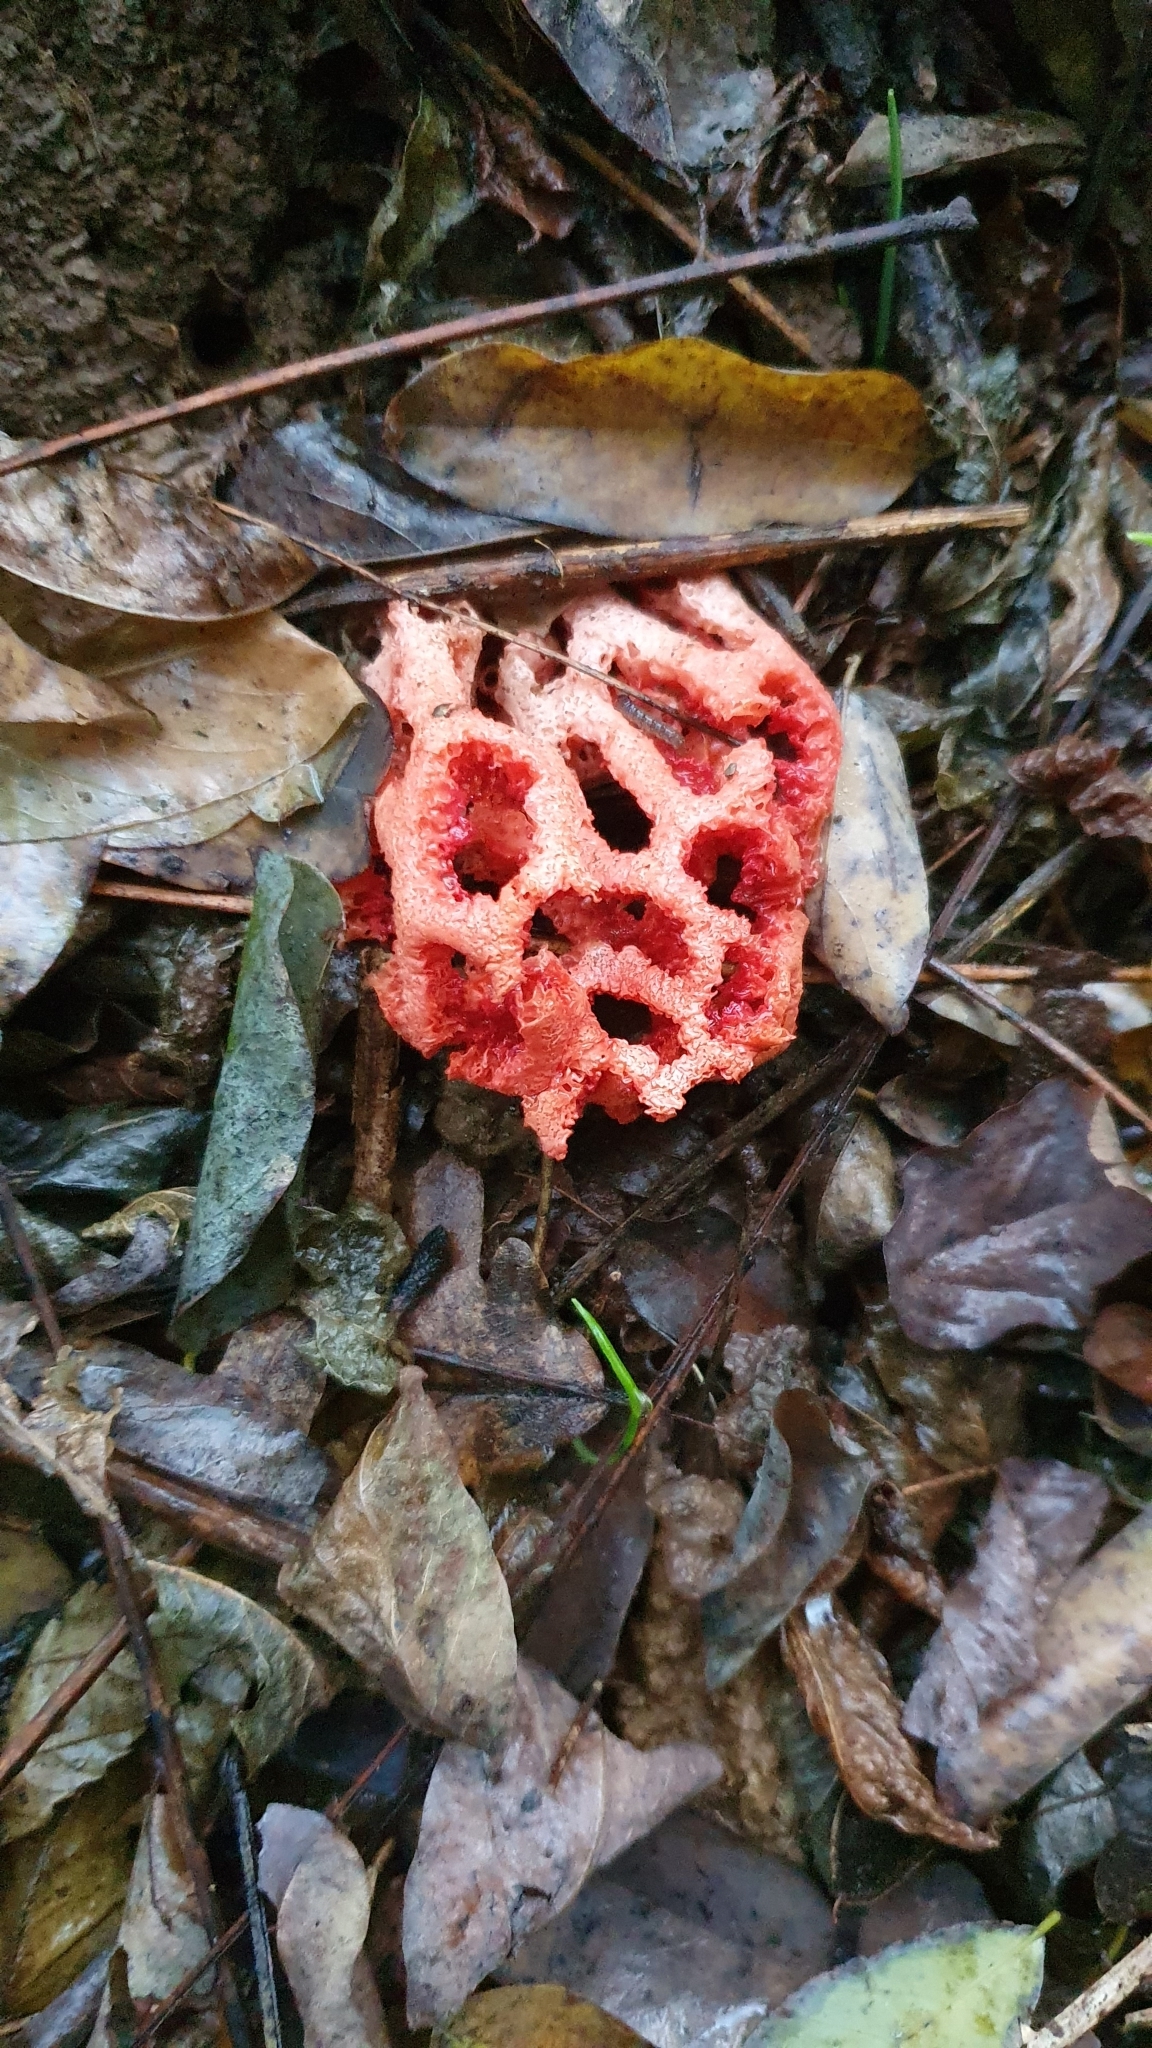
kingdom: Fungi
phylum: Basidiomycota
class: Agaricomycetes
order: Phallales
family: Phallaceae
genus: Clathrus
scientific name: Clathrus ruber
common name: Red cage
